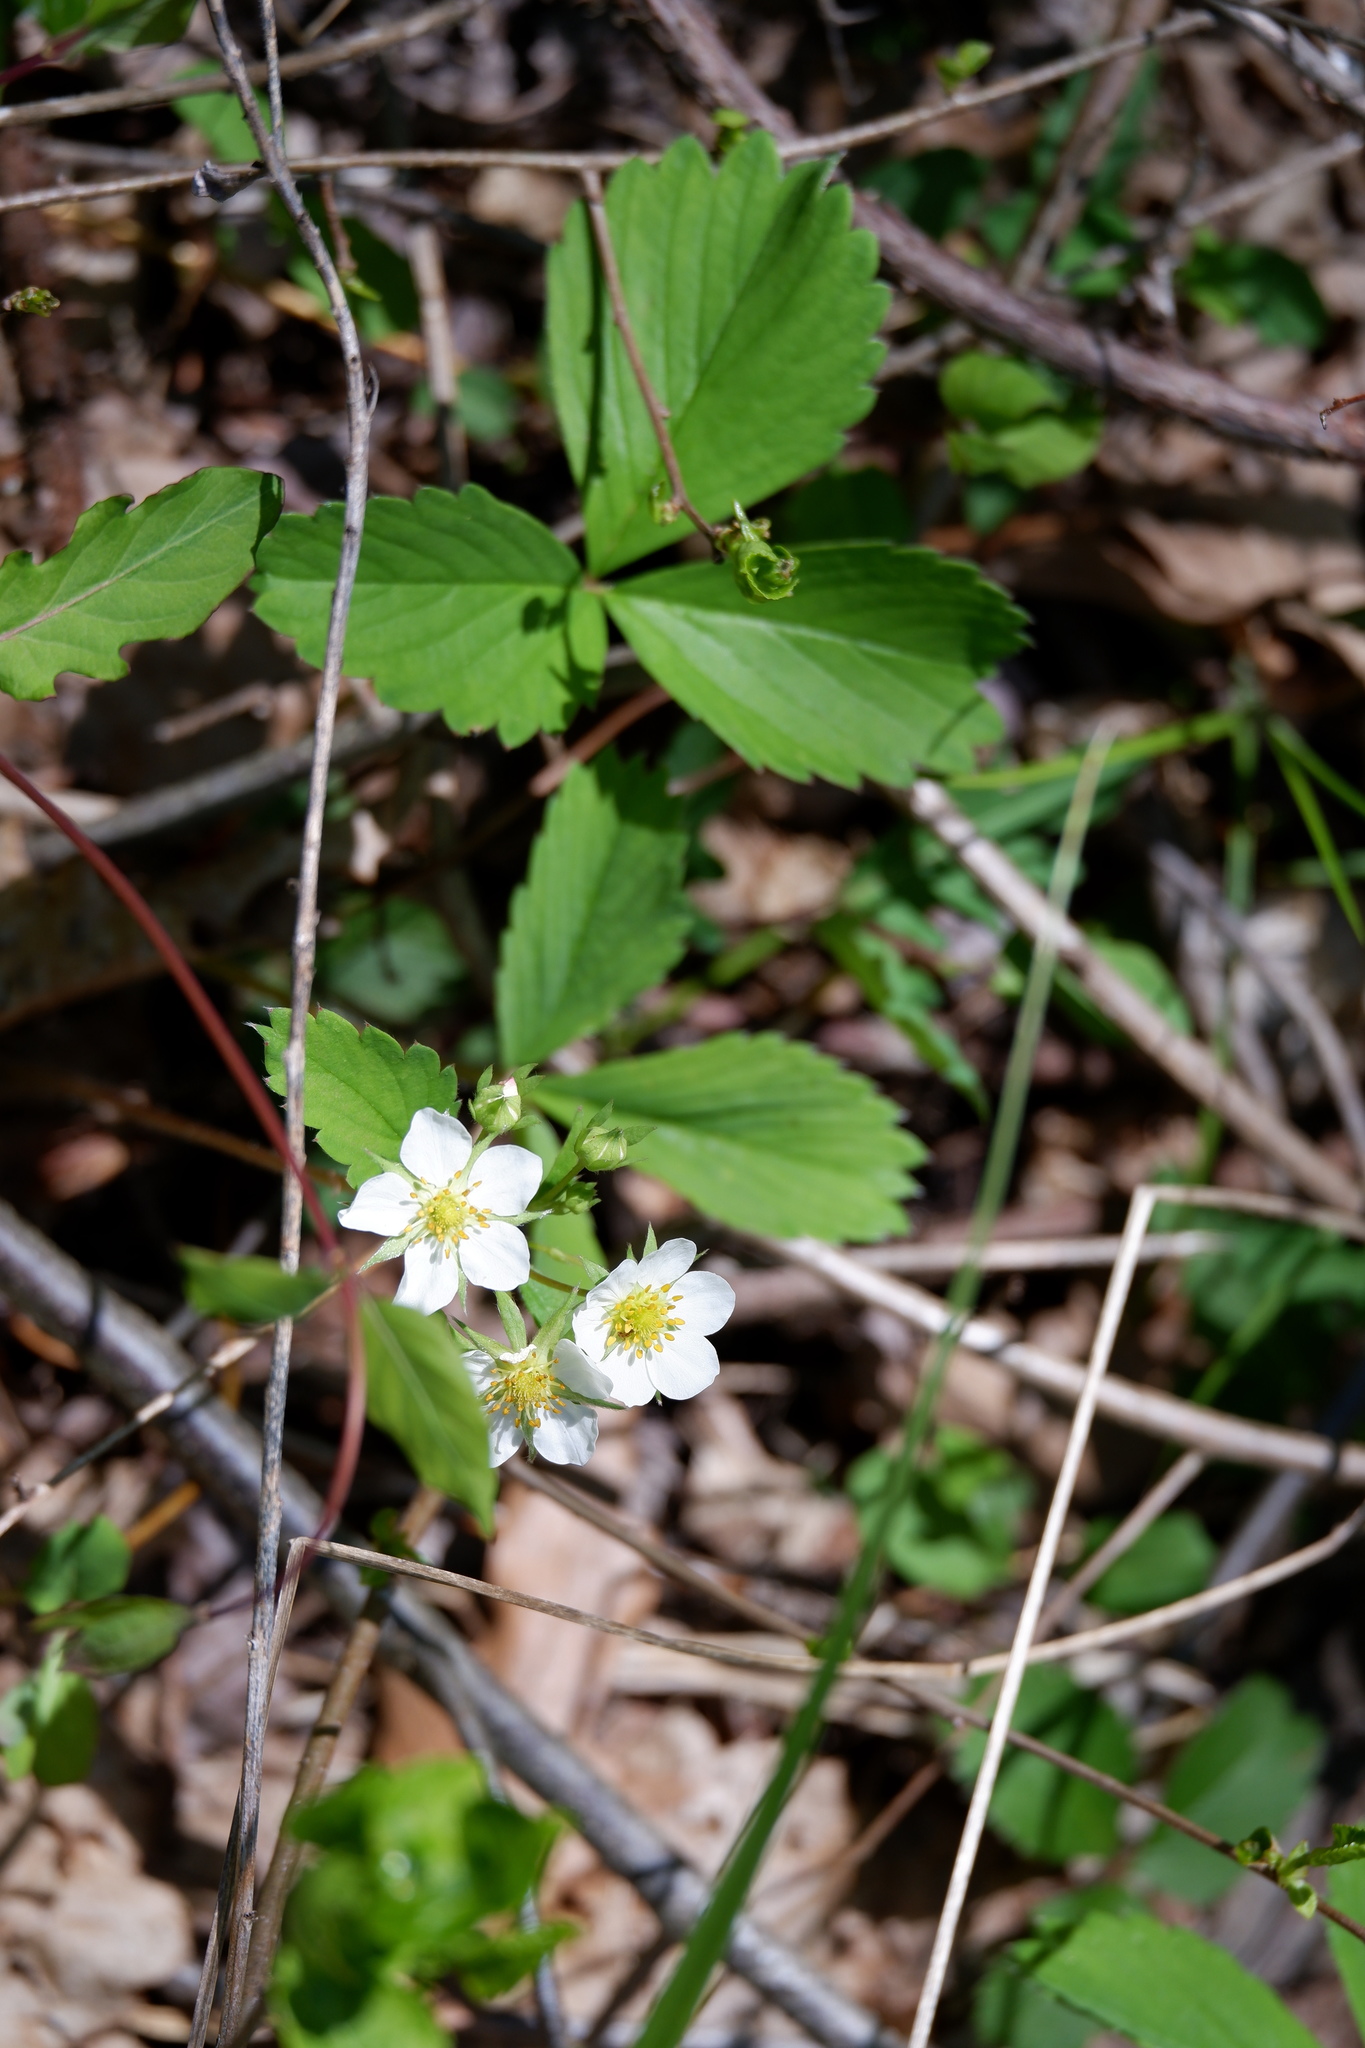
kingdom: Plantae
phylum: Tracheophyta
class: Magnoliopsida
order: Rosales
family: Rosaceae
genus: Fragaria
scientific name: Fragaria virginiana
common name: Thickleaved wild strawberry
